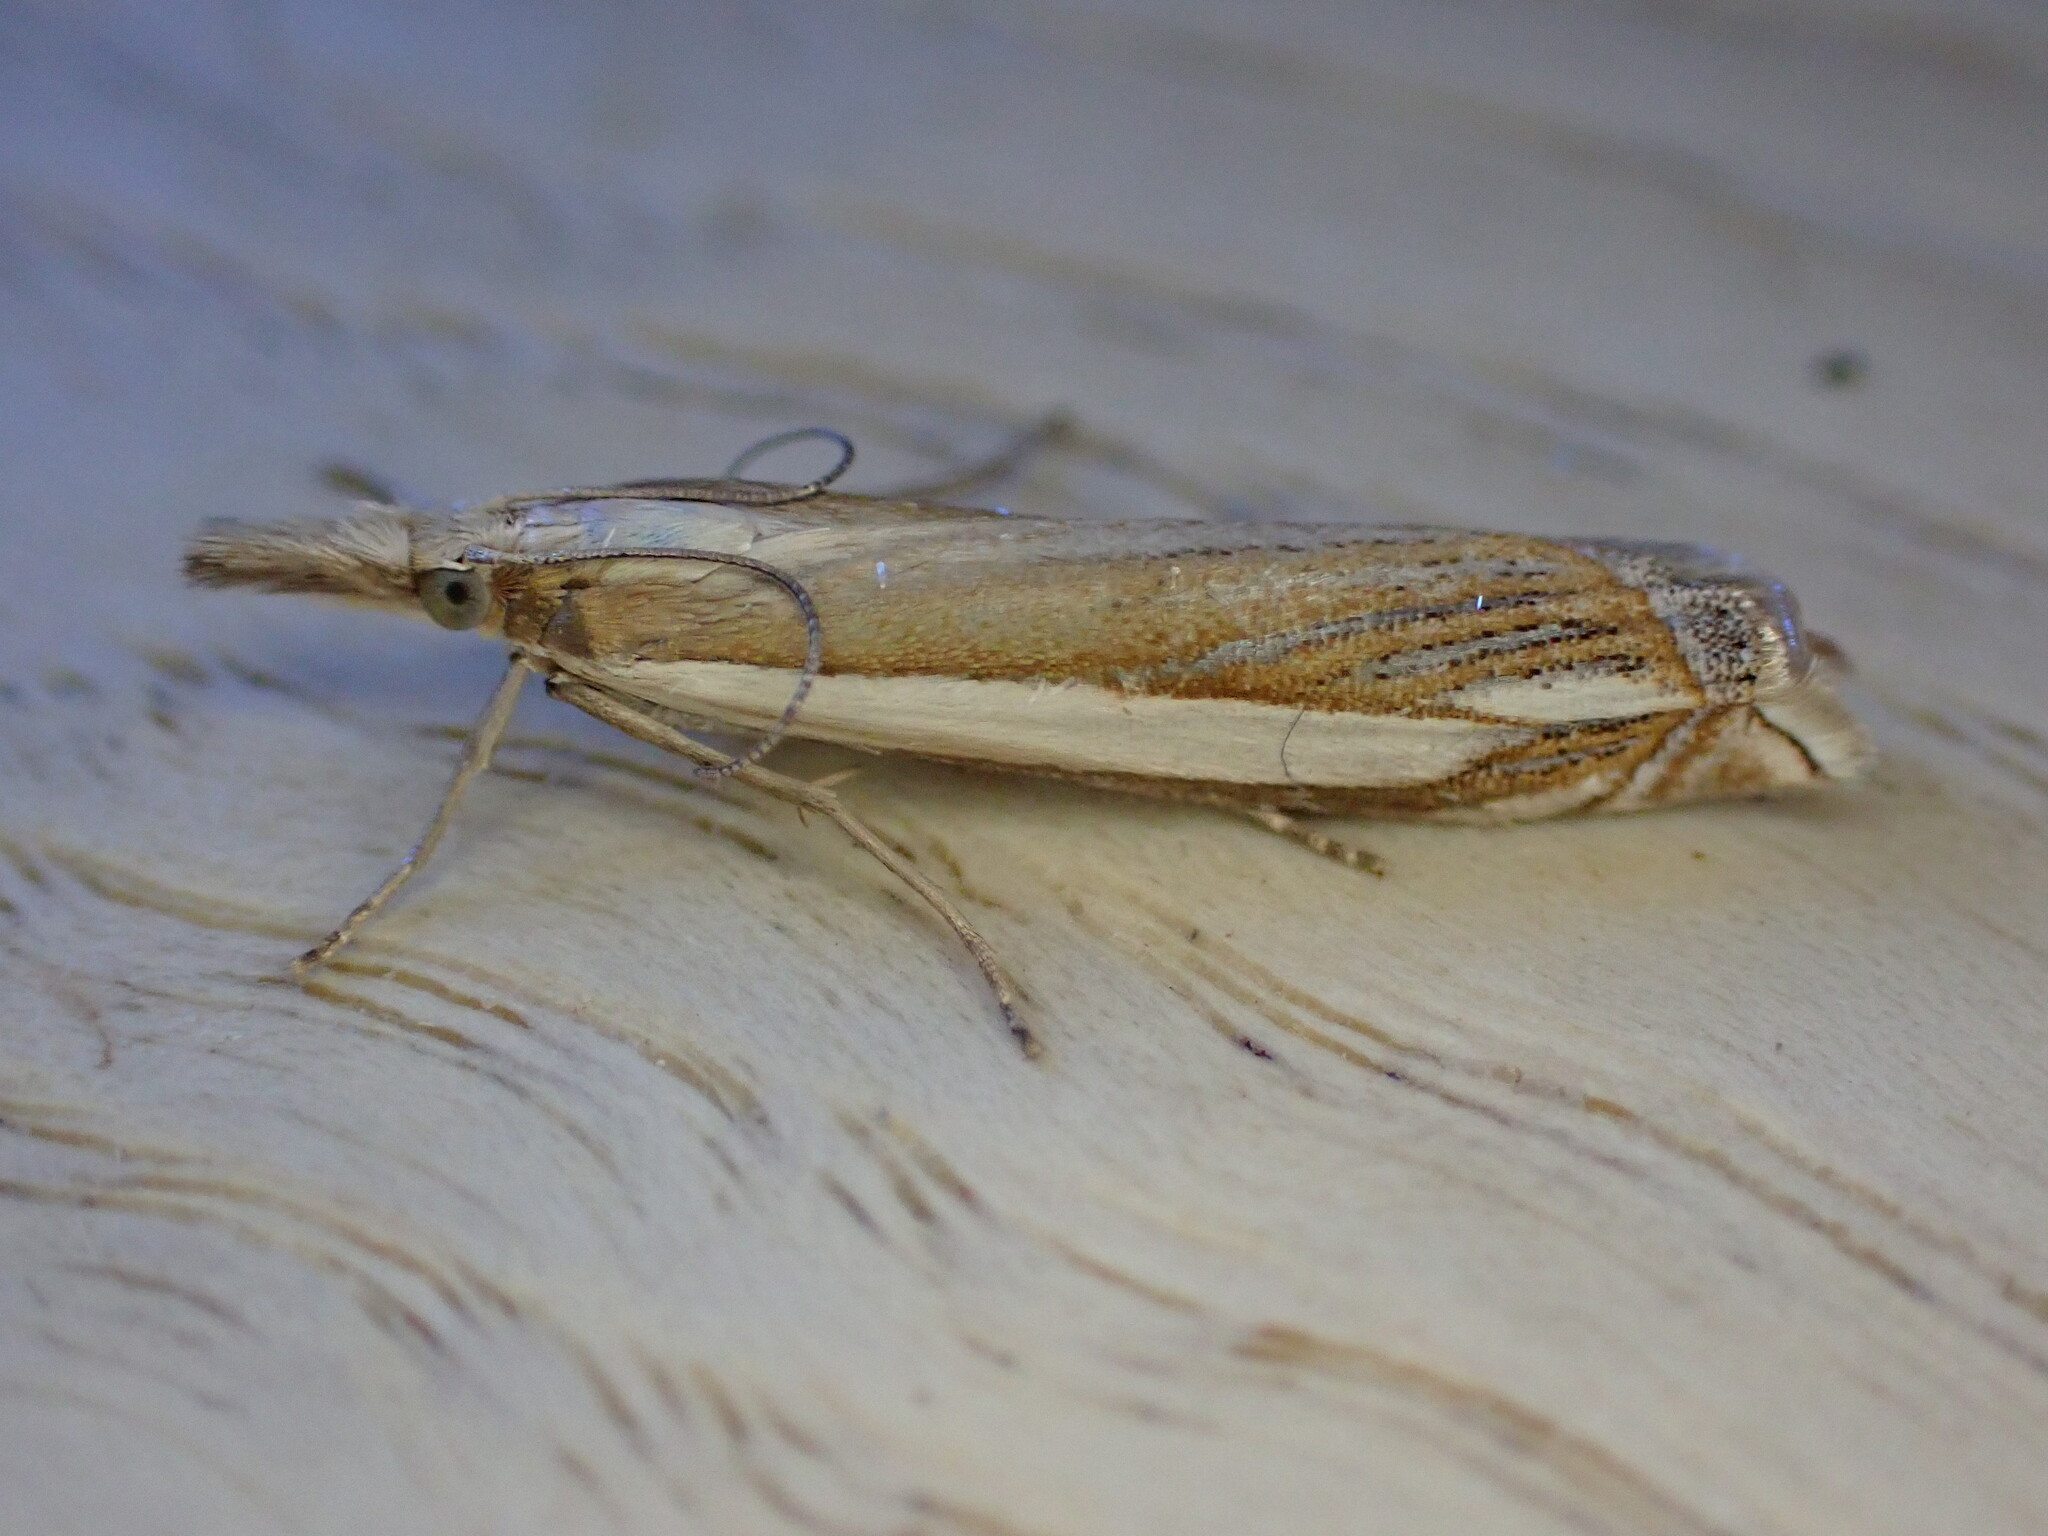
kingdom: Animalia
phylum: Arthropoda
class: Insecta
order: Lepidoptera
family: Crambidae
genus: Crambus
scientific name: Crambus pascuella
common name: Inlaid grass-veneer
